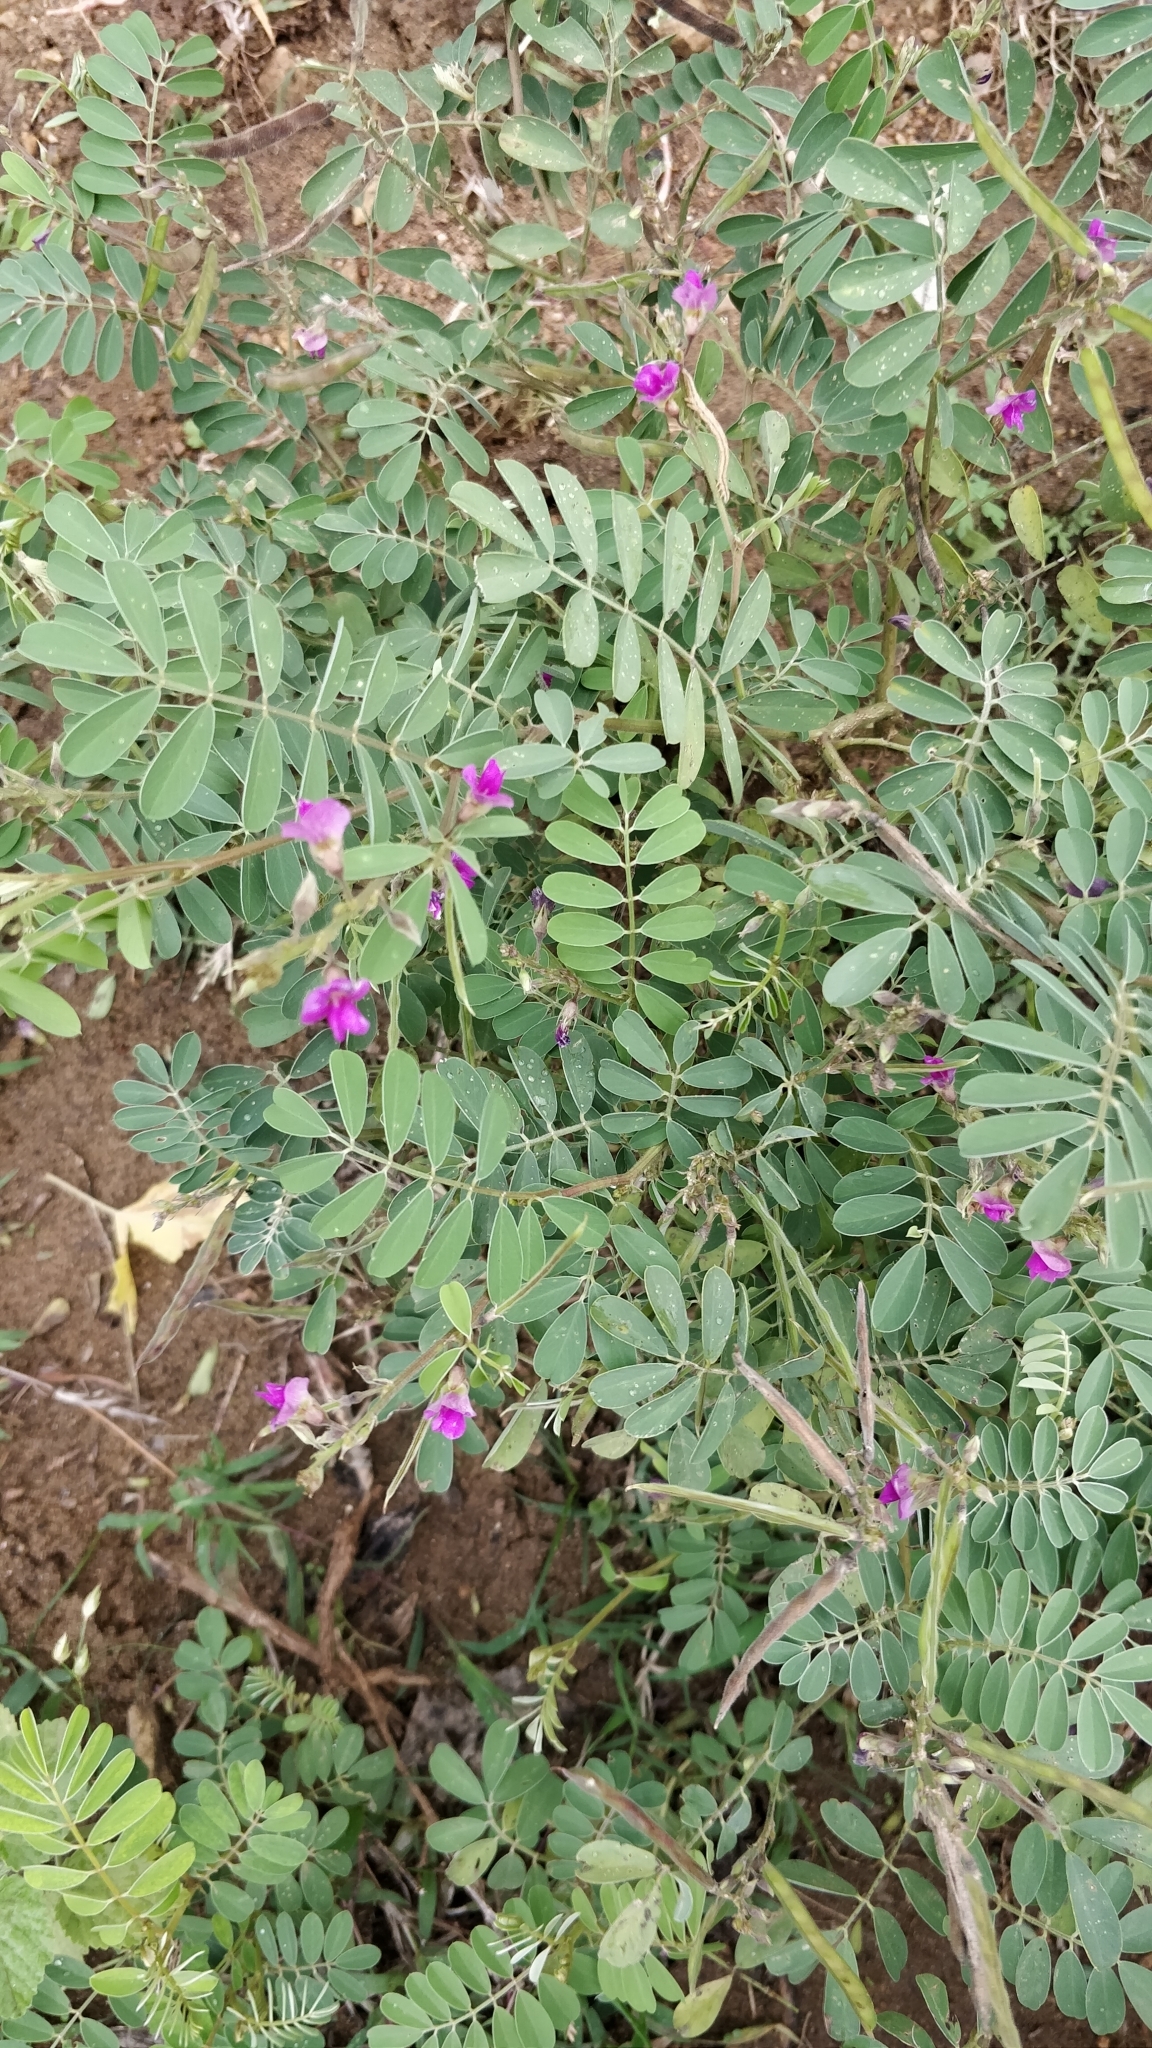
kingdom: Plantae
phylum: Tracheophyta
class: Magnoliopsida
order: Fabales
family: Fabaceae
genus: Tephrosia
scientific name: Tephrosia purpurea
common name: Fishpoison
